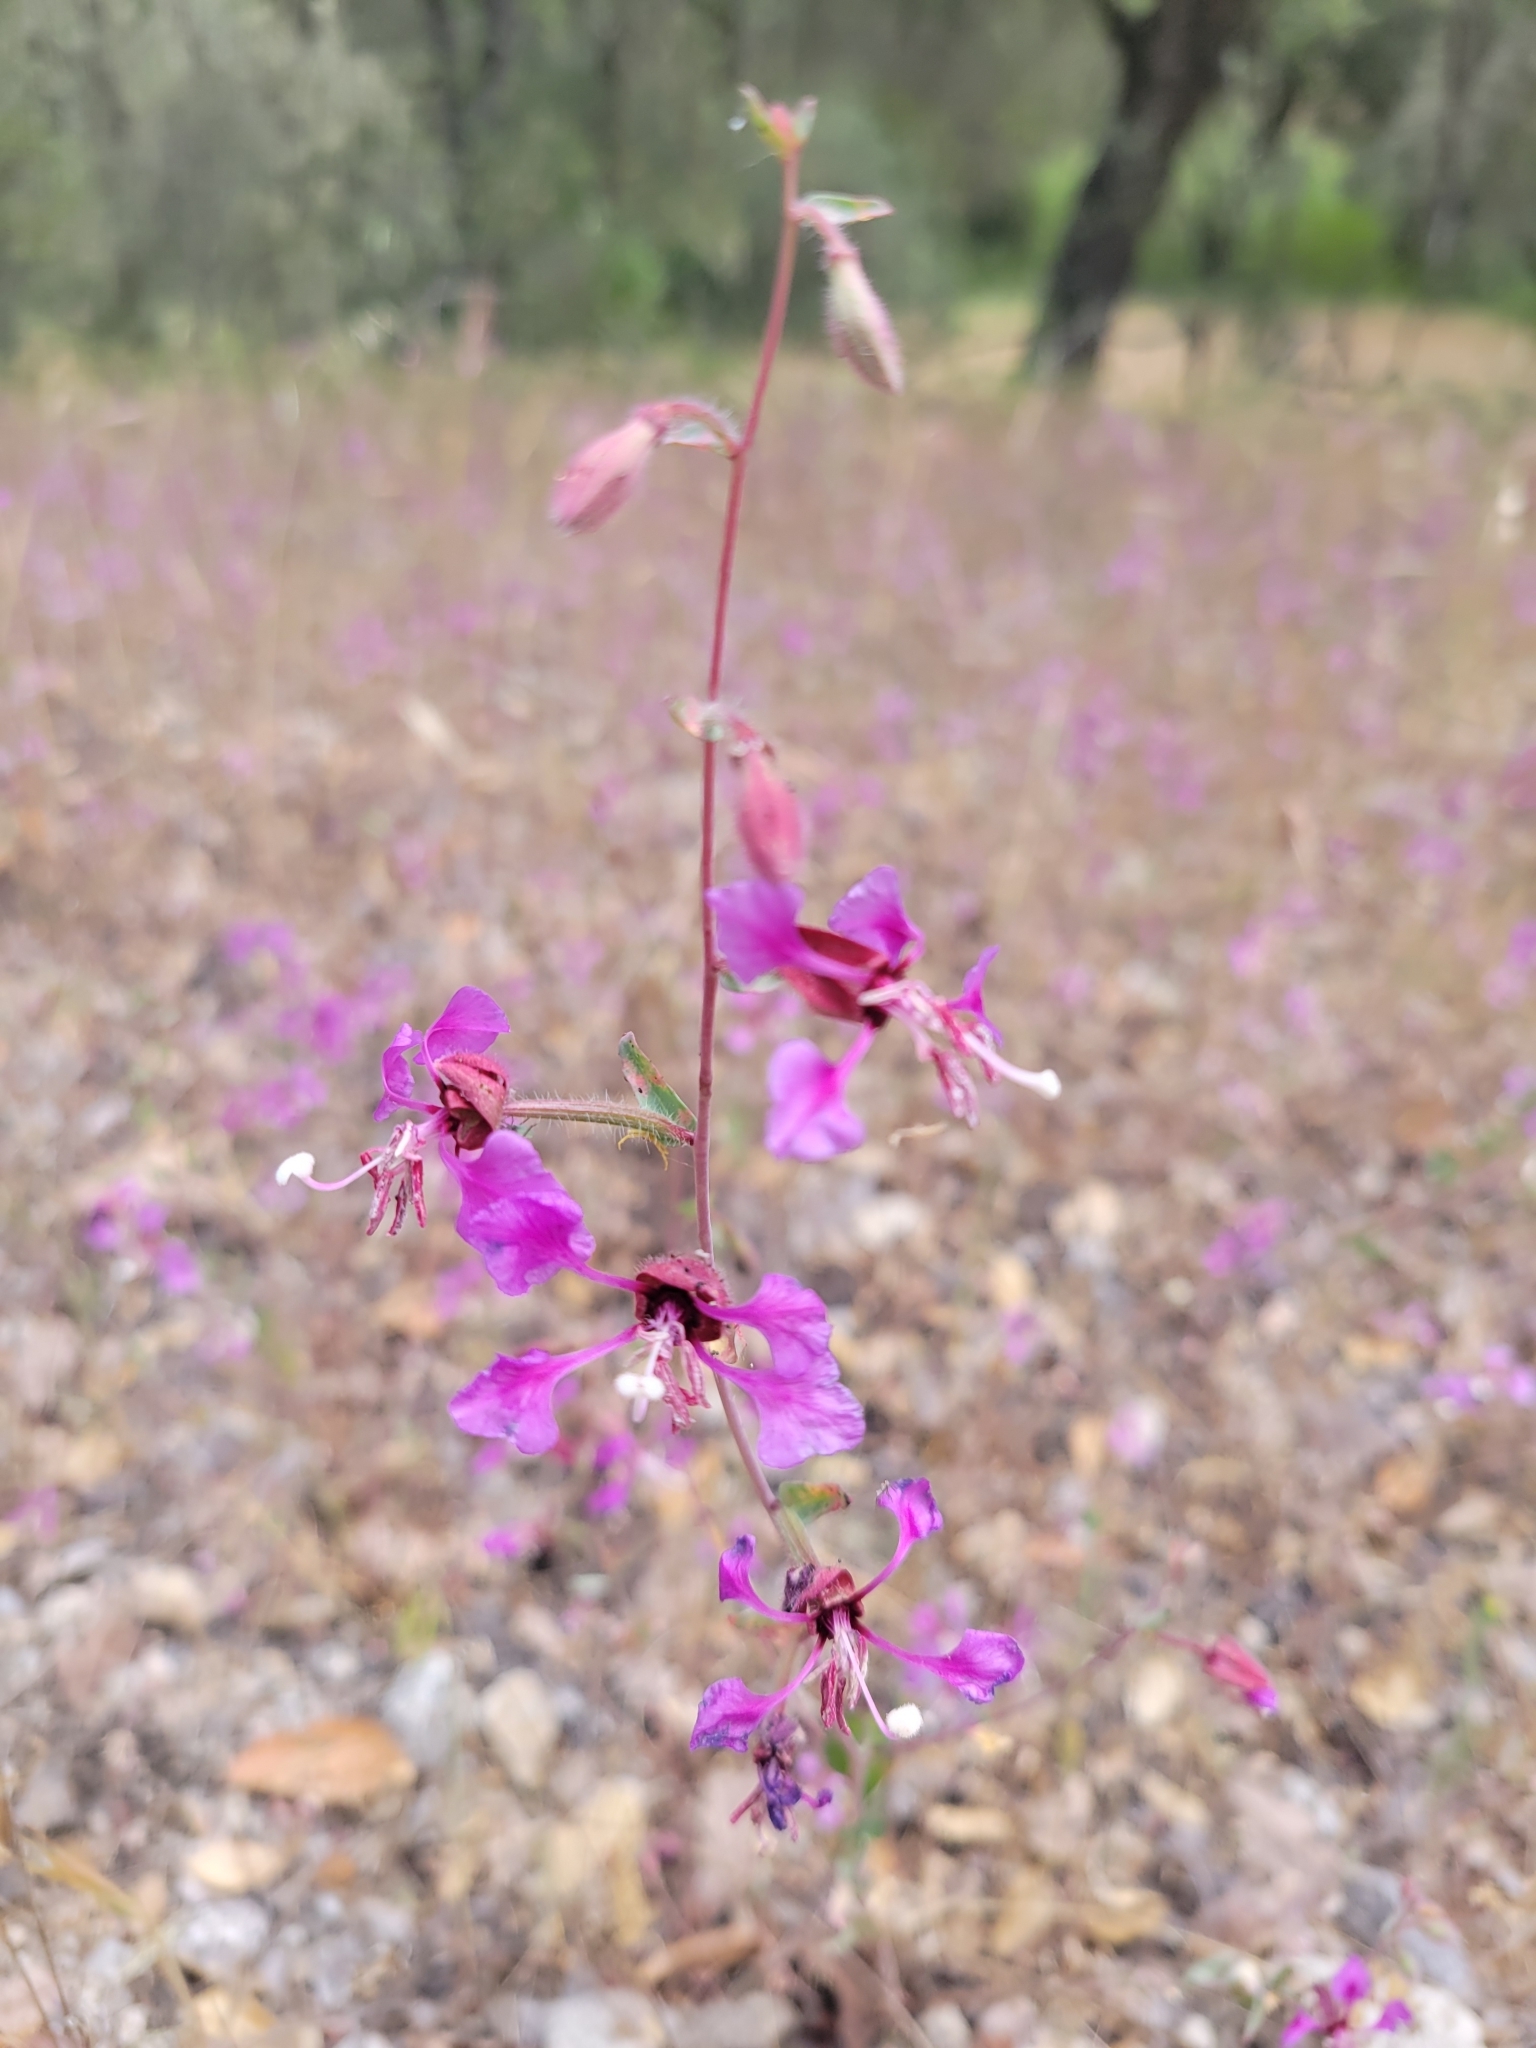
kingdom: Plantae
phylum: Tracheophyta
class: Magnoliopsida
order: Myrtales
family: Onagraceae
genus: Clarkia
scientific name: Clarkia unguiculata
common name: Clarkia
